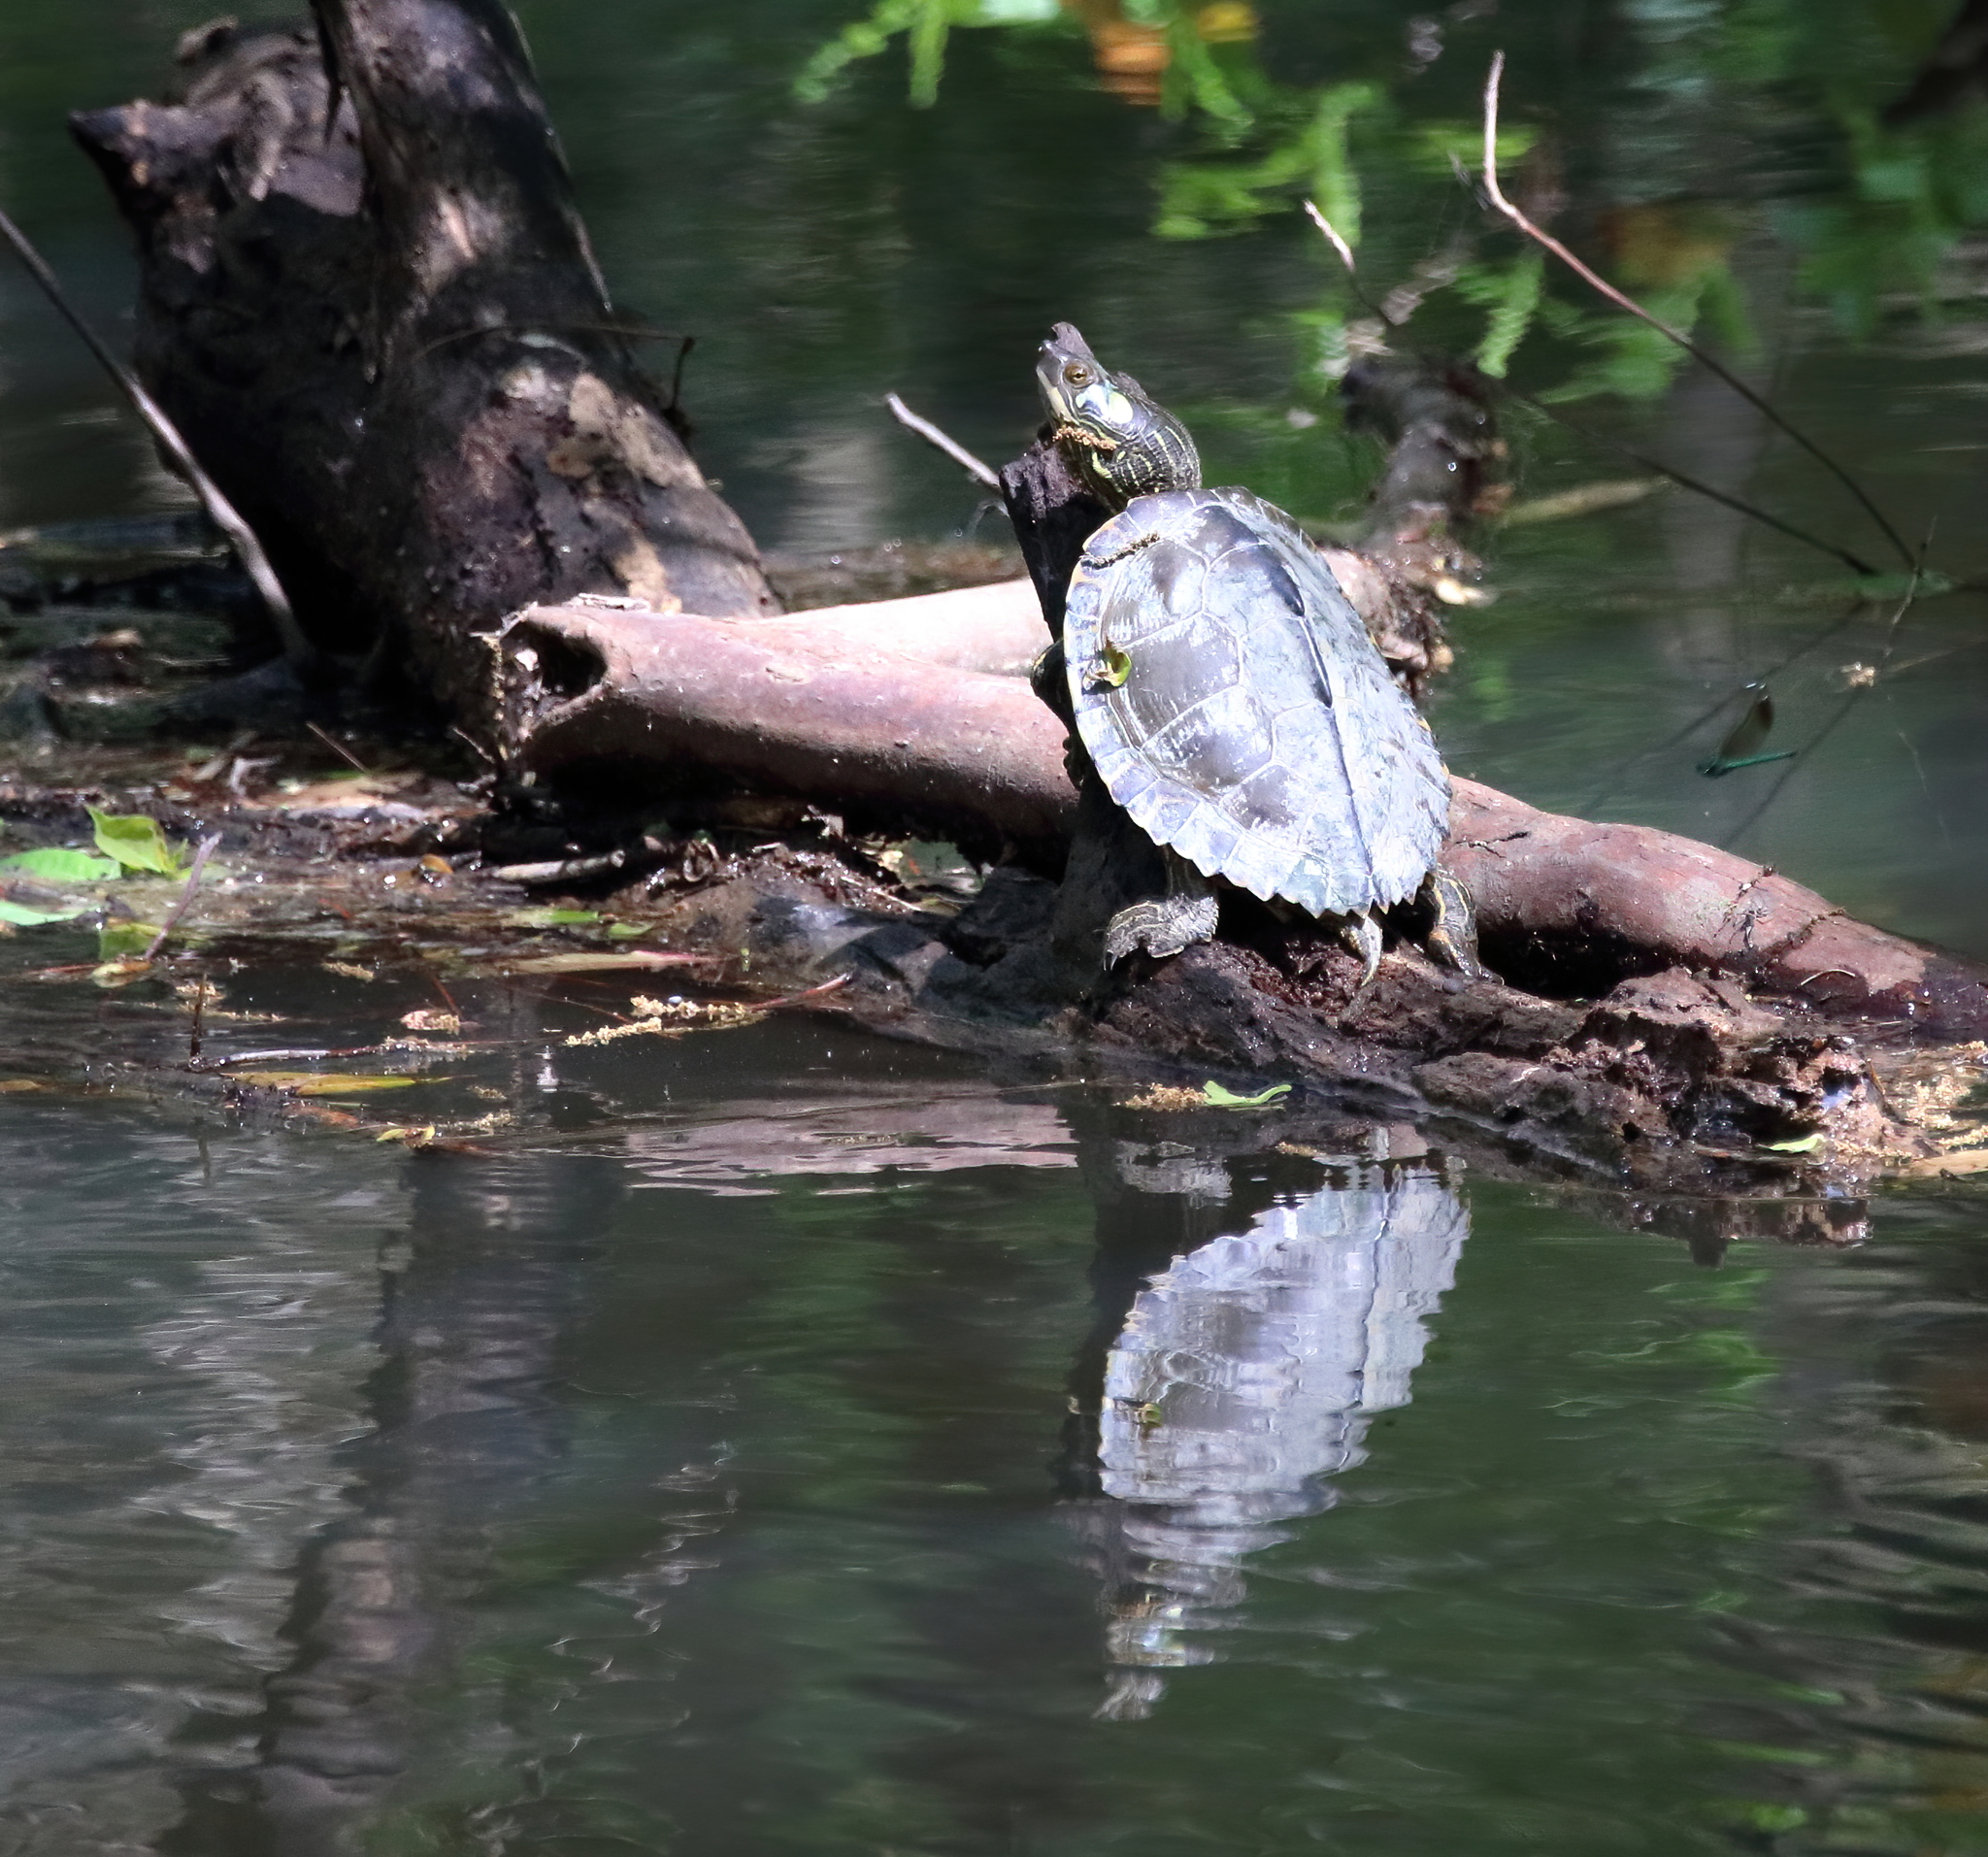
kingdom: Animalia
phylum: Chordata
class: Testudines
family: Emydidae
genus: Graptemys
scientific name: Graptemys pearlensis
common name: Pearl river map turtle
